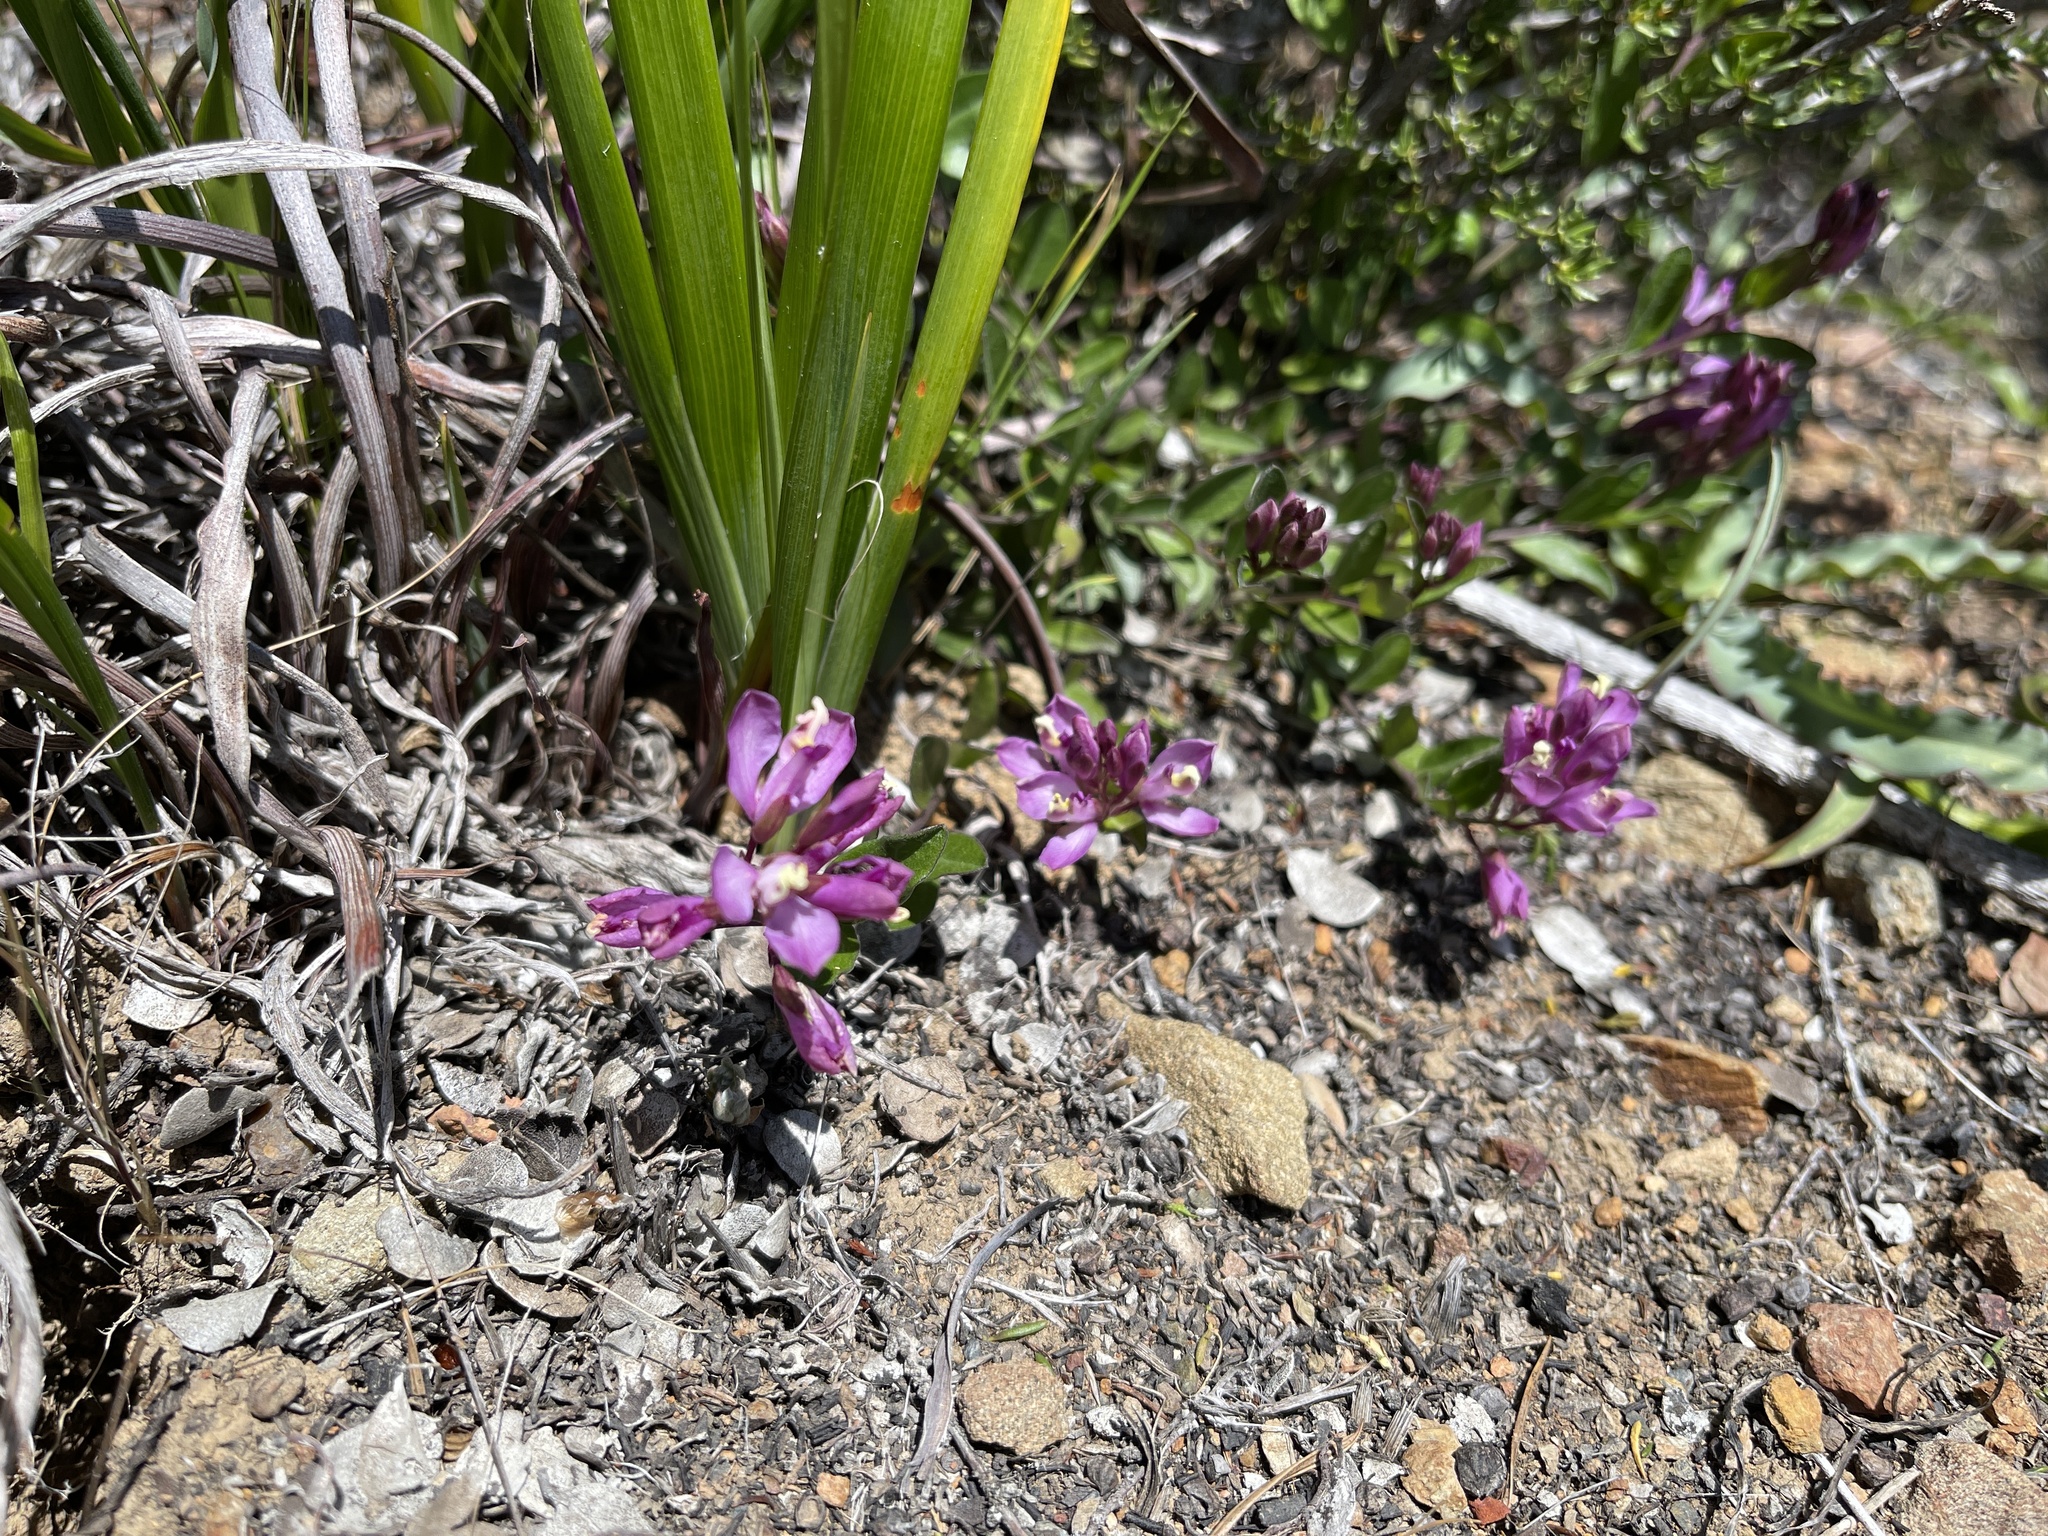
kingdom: Plantae
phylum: Tracheophyta
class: Magnoliopsida
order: Fabales
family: Polygalaceae
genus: Rhinotropis
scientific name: Rhinotropis californica
